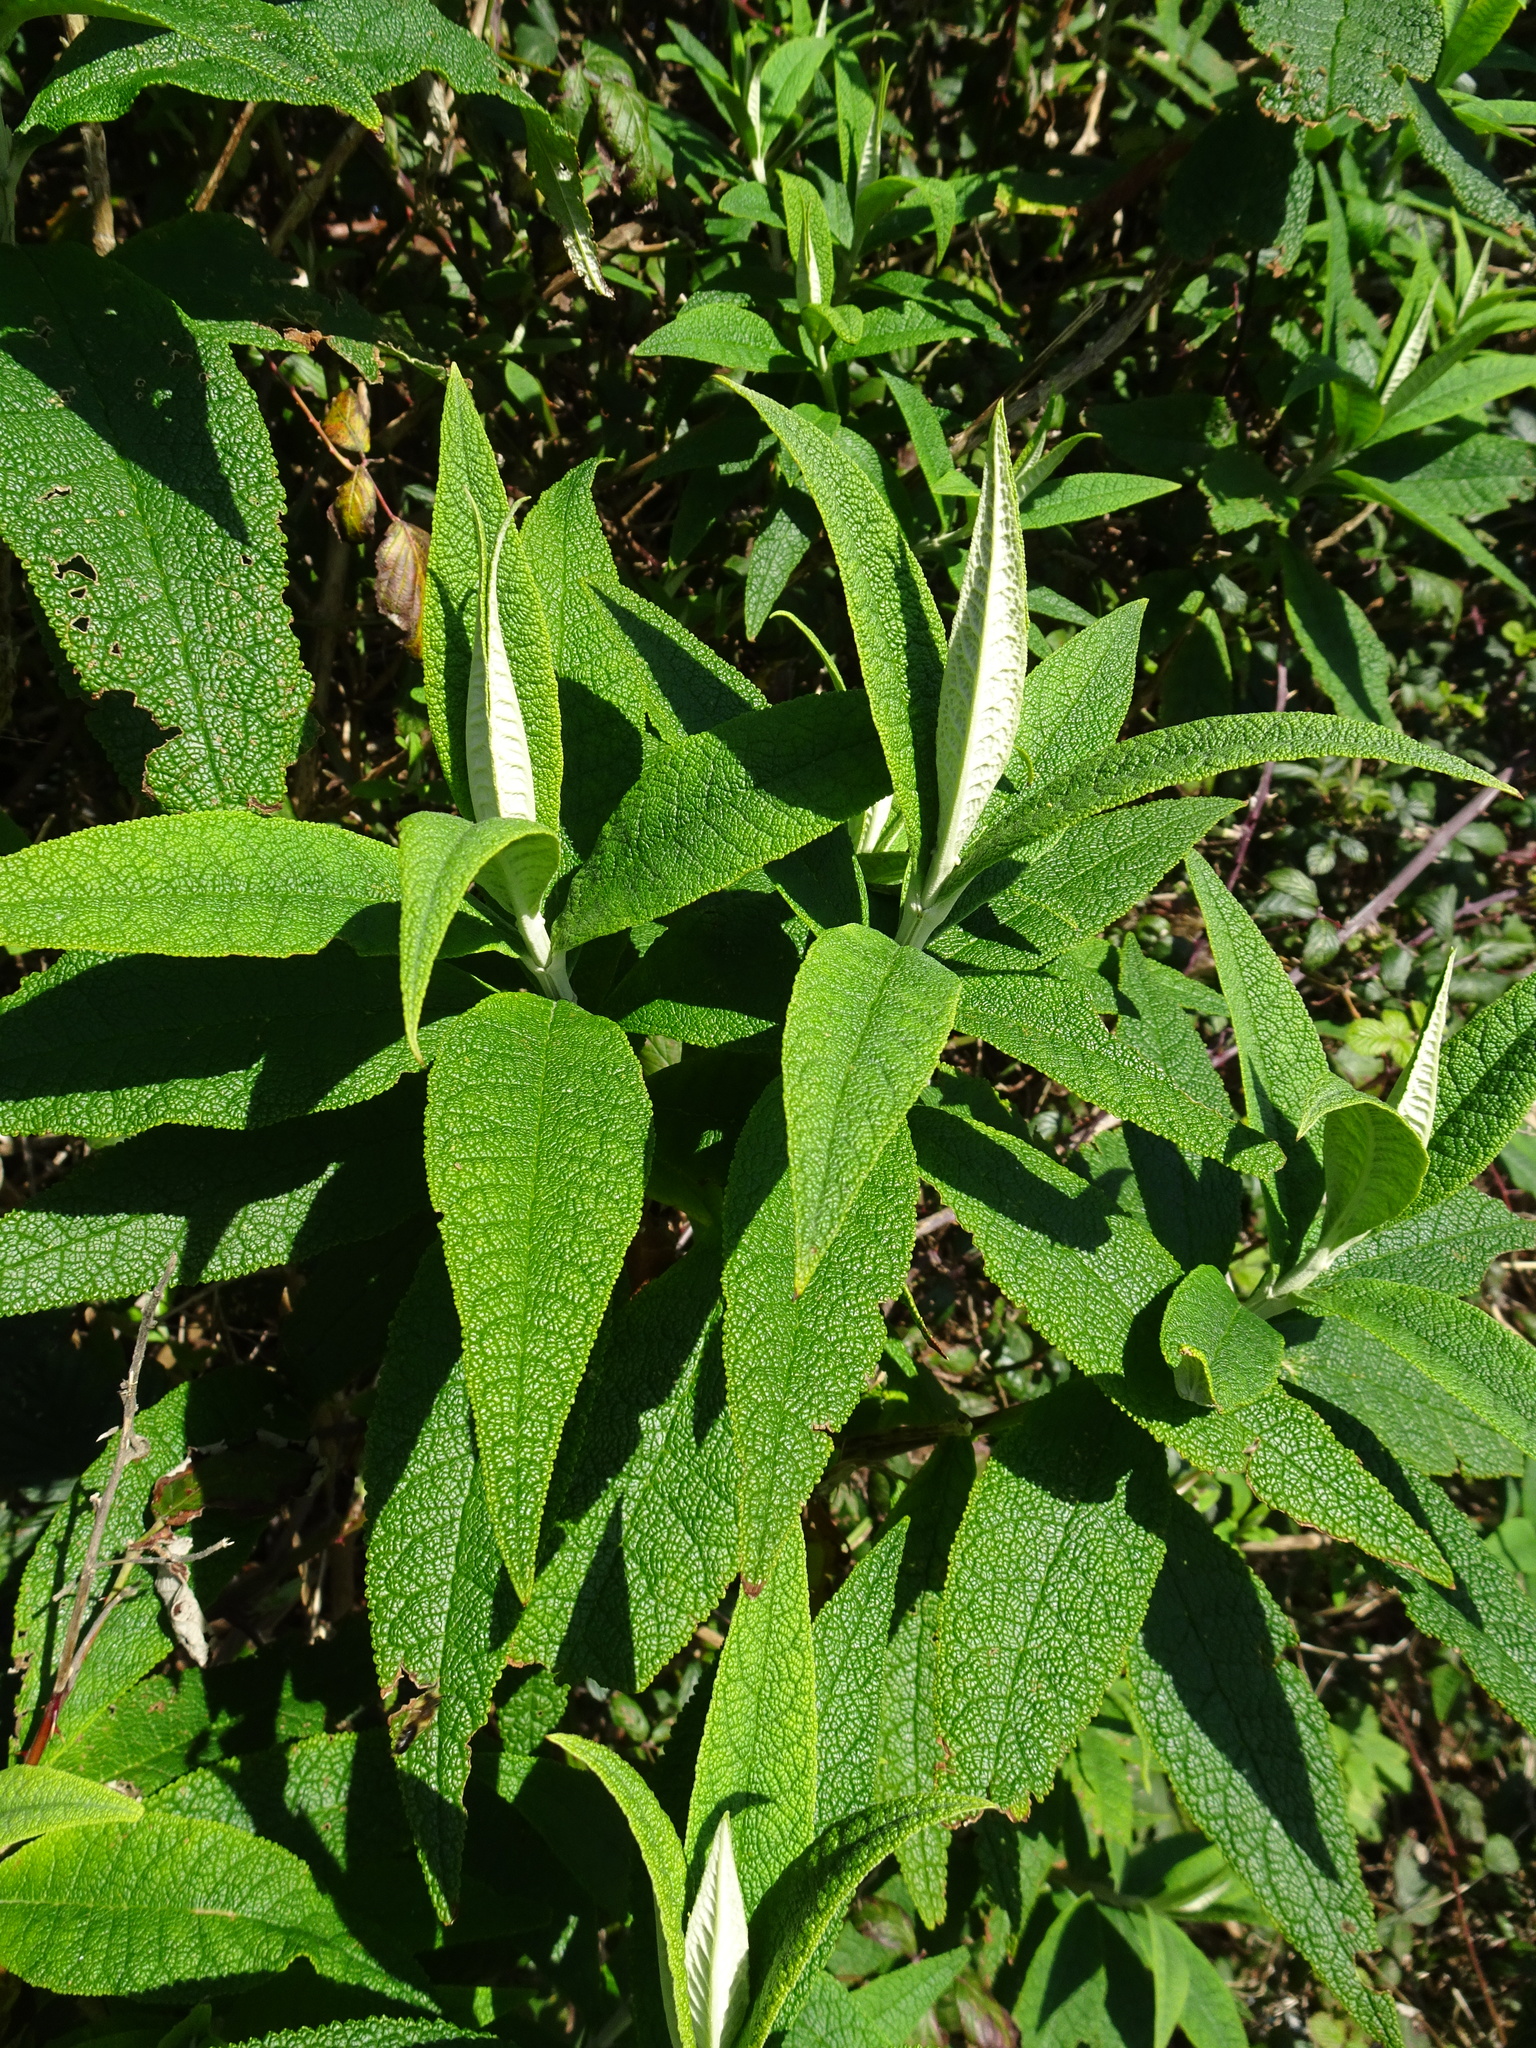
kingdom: Plantae
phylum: Tracheophyta
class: Magnoliopsida
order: Lamiales
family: Scrophulariaceae
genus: Buddleja
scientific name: Buddleja globosa
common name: Orange-ball-tree
